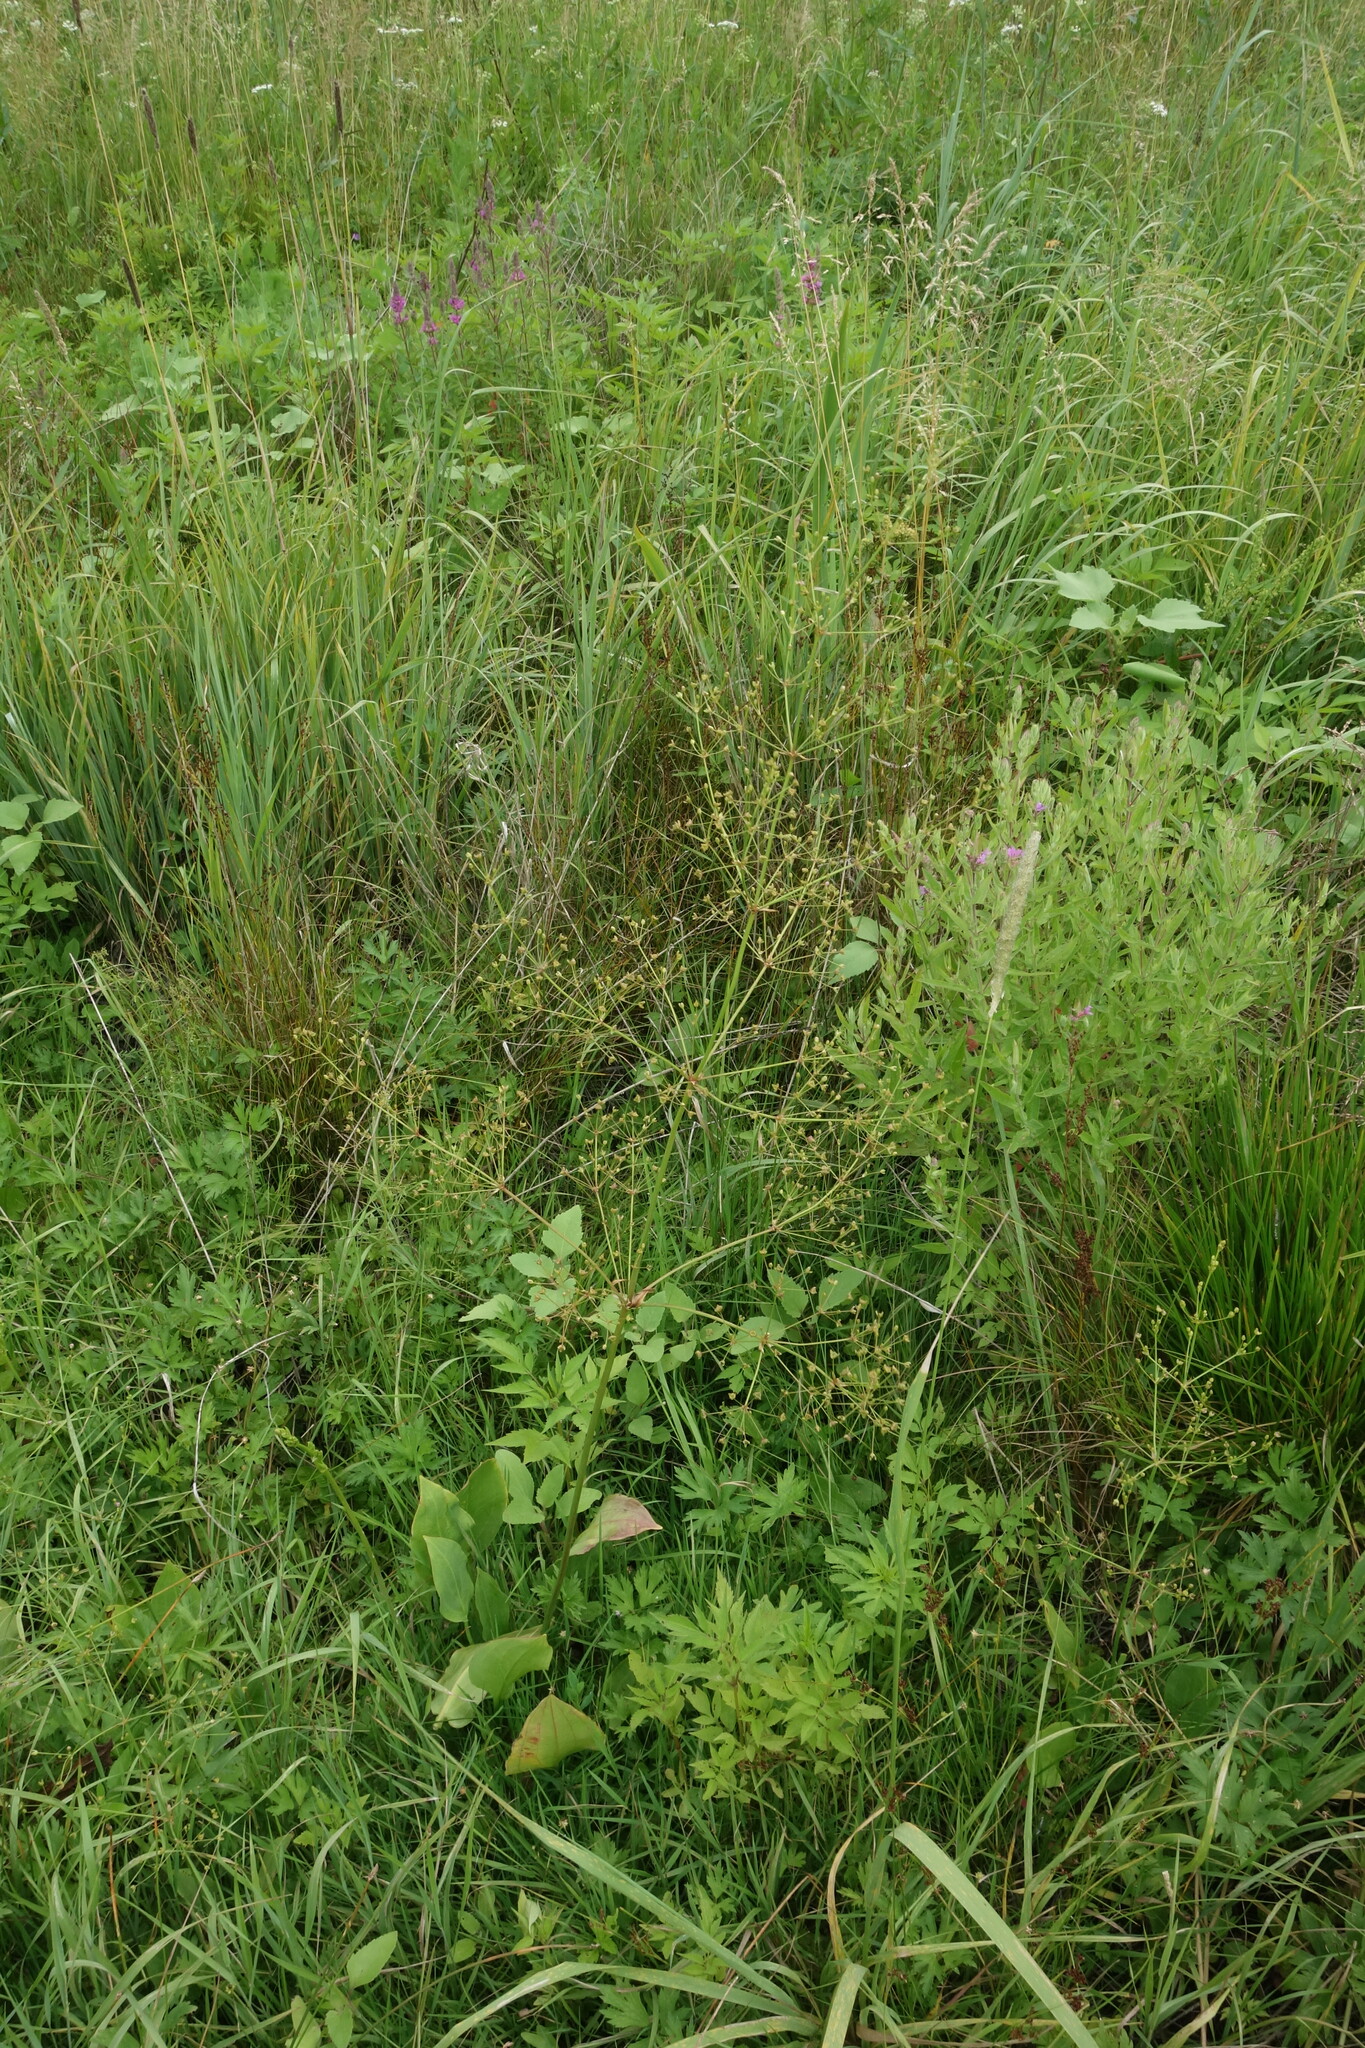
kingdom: Plantae
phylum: Tracheophyta
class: Liliopsida
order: Alismatales
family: Alismataceae
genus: Alisma
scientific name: Alisma plantago-aquatica
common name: Water-plantain
